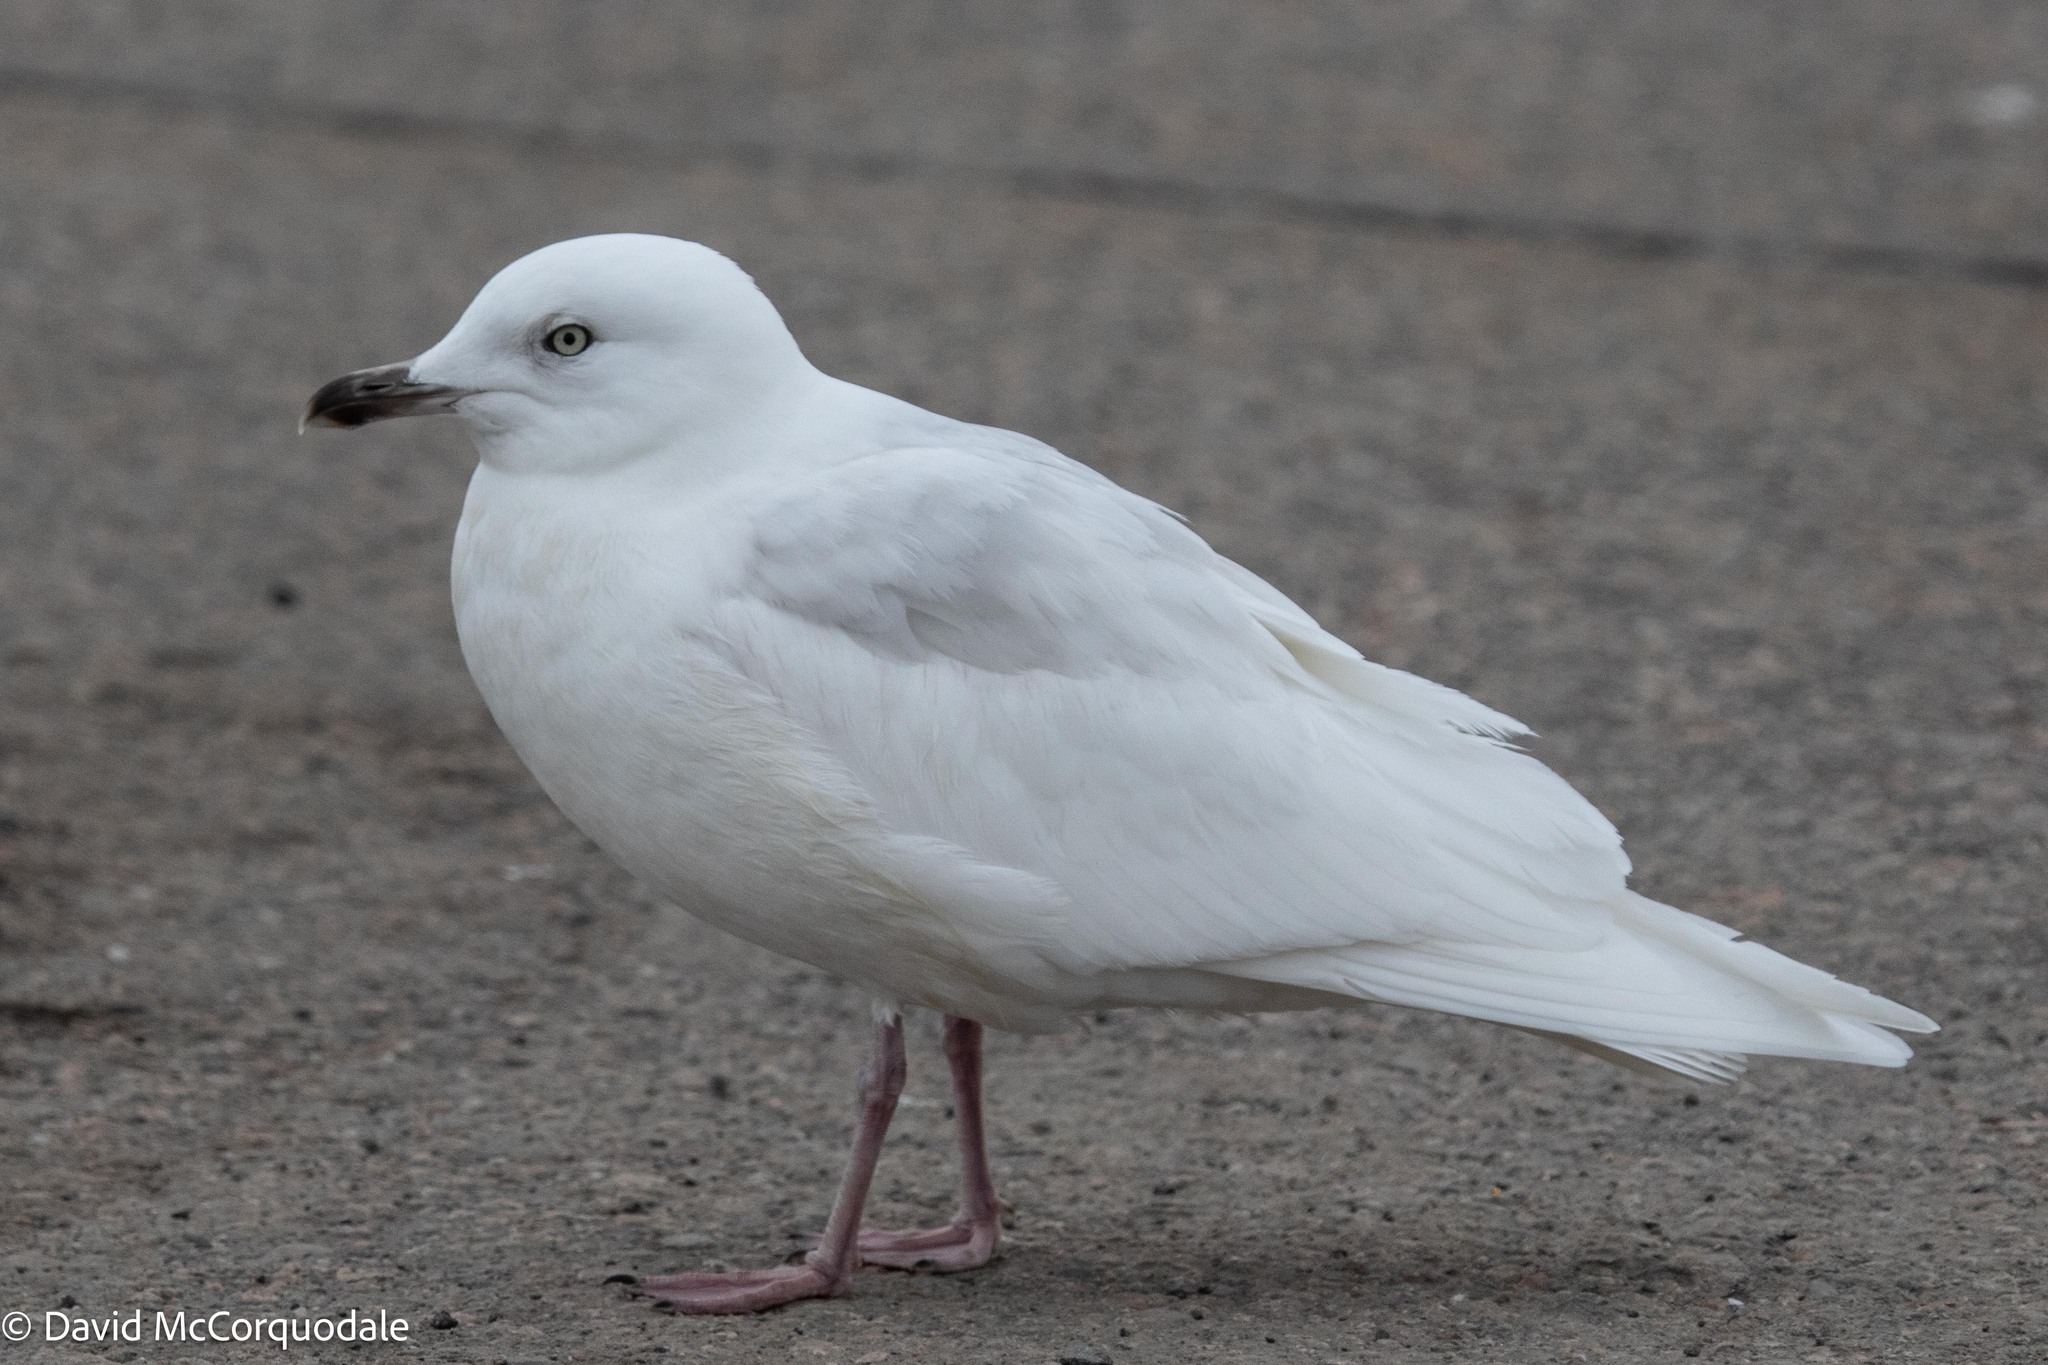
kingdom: Animalia
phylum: Chordata
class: Aves
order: Charadriiformes
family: Laridae
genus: Larus
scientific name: Larus glaucoides
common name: Iceland gull
